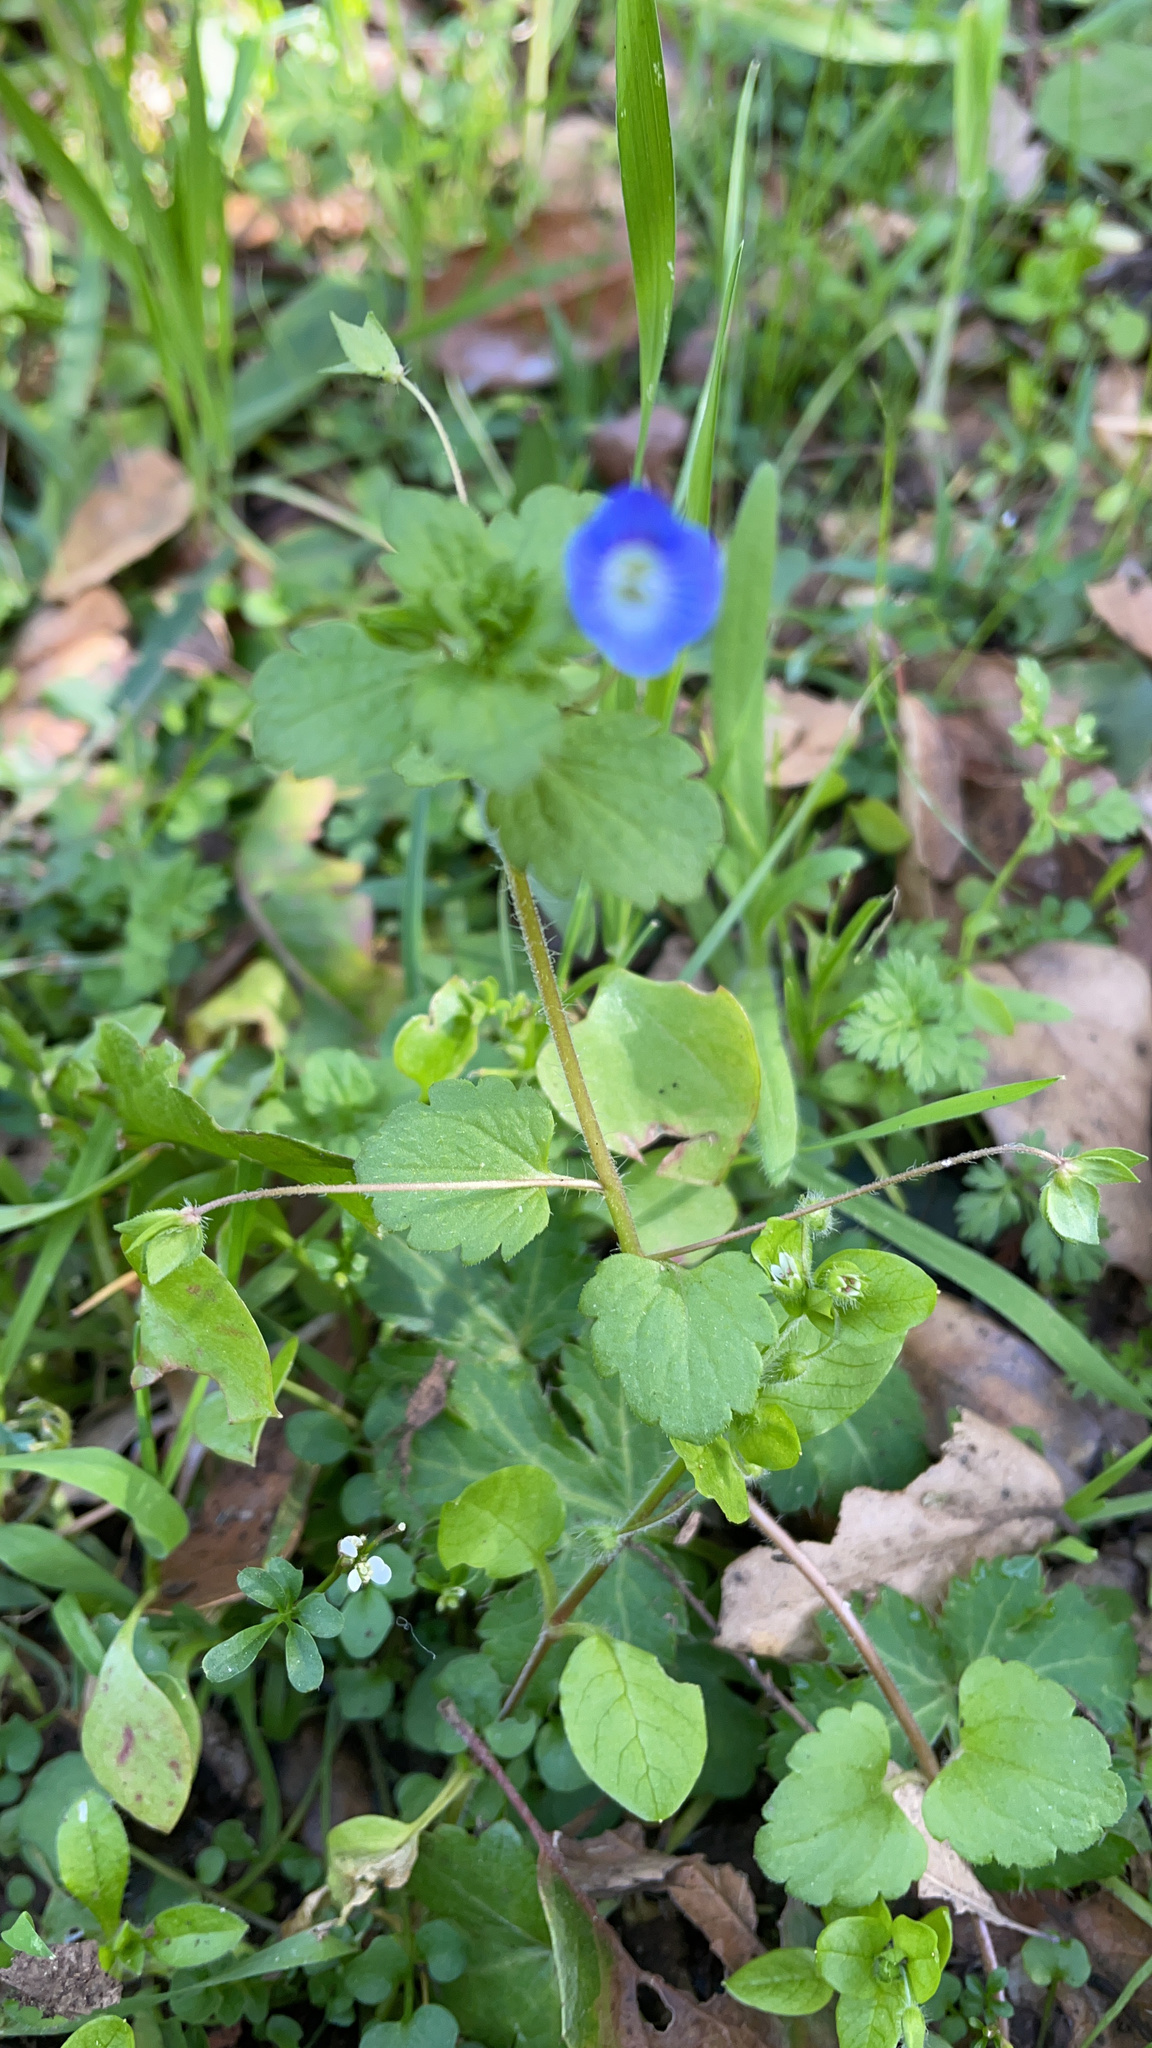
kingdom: Plantae
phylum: Tracheophyta
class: Magnoliopsida
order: Lamiales
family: Plantaginaceae
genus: Veronica
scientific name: Veronica persica
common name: Common field-speedwell
